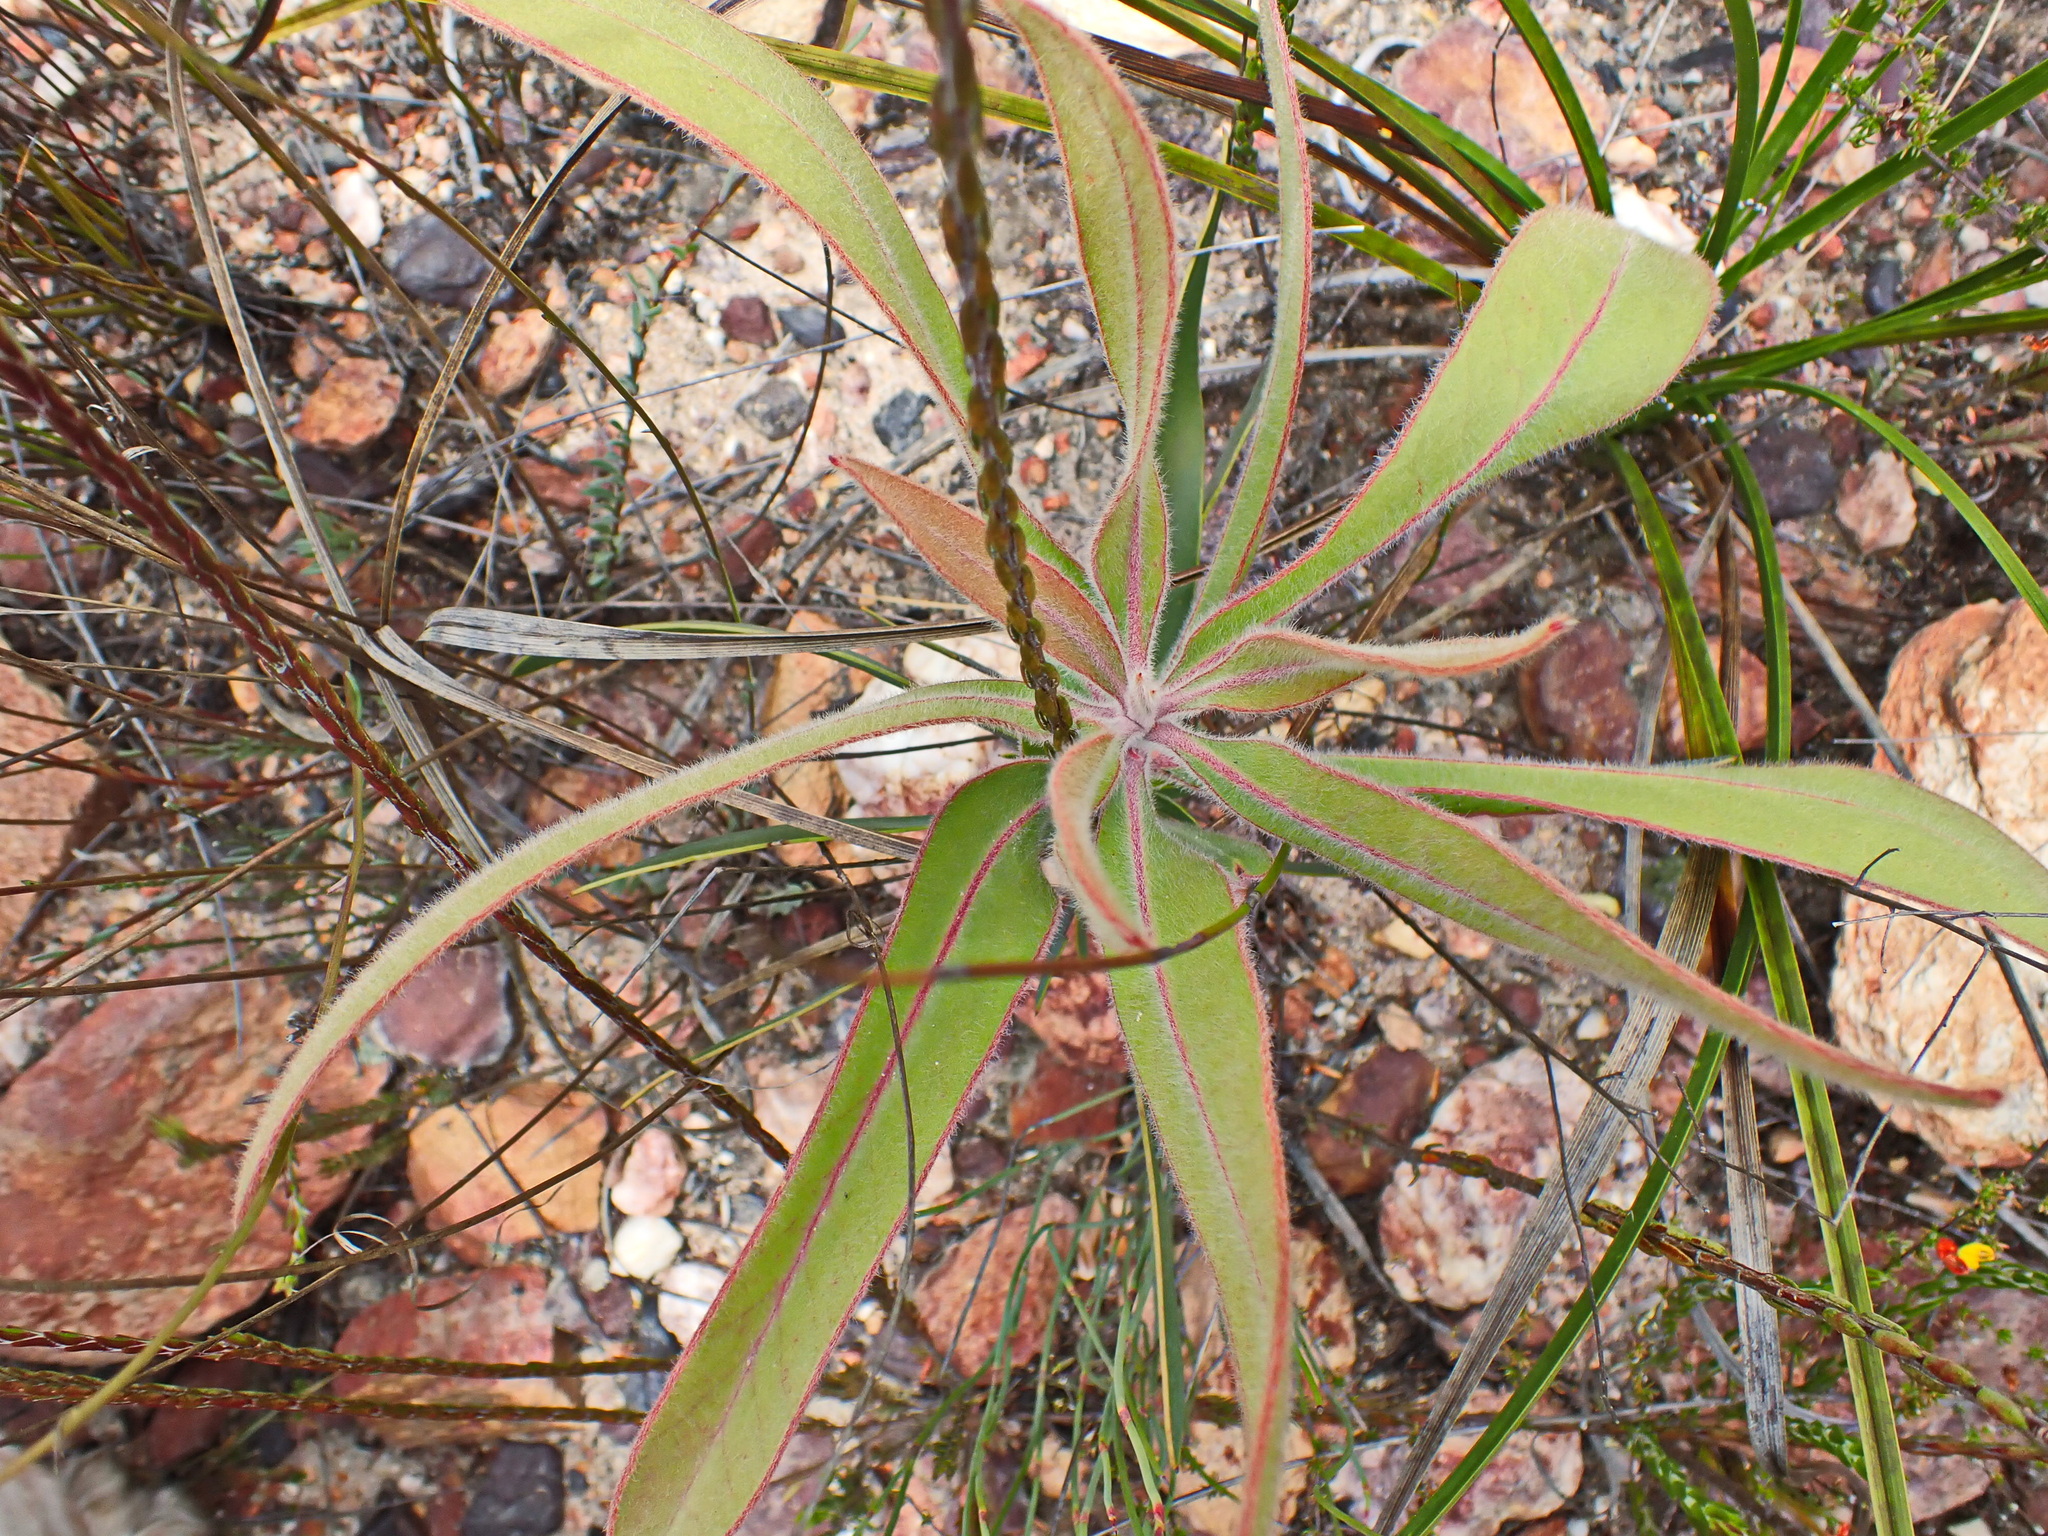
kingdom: Plantae
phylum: Tracheophyta
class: Magnoliopsida
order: Proteales
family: Proteaceae
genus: Protea
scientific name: Protea lorifolia
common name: Strap-leaved protea
